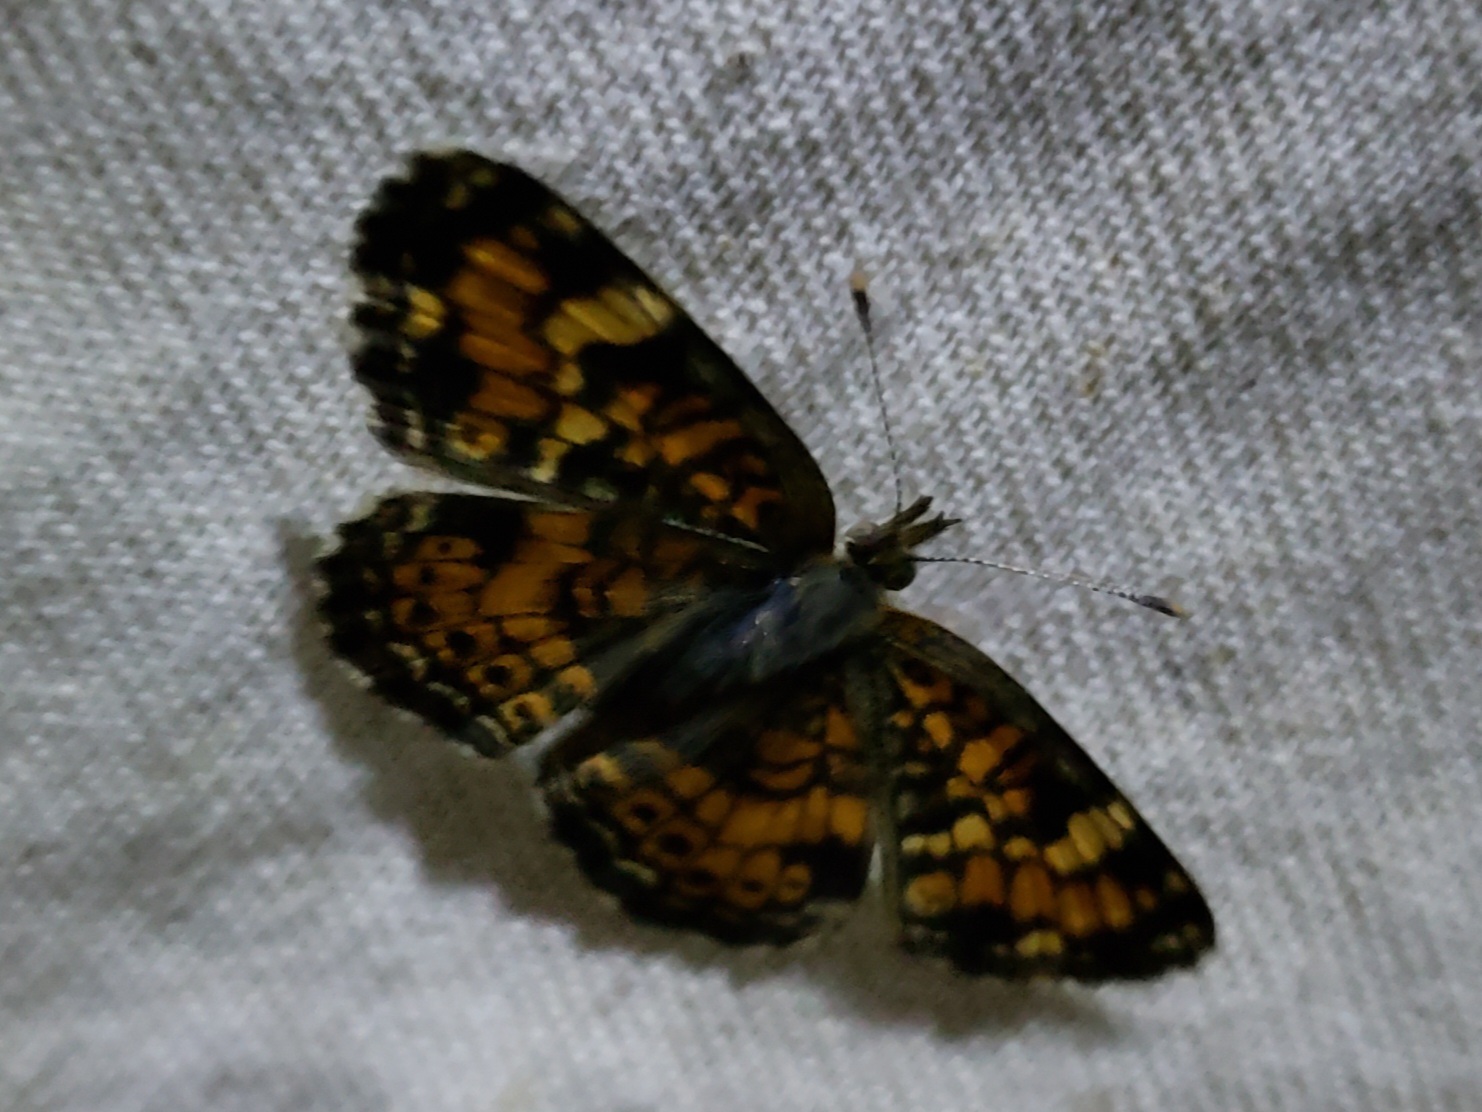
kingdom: Animalia
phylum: Arthropoda
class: Insecta
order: Lepidoptera
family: Nymphalidae
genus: Phyciodes
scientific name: Phyciodes phaon
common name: Phaon crescent
